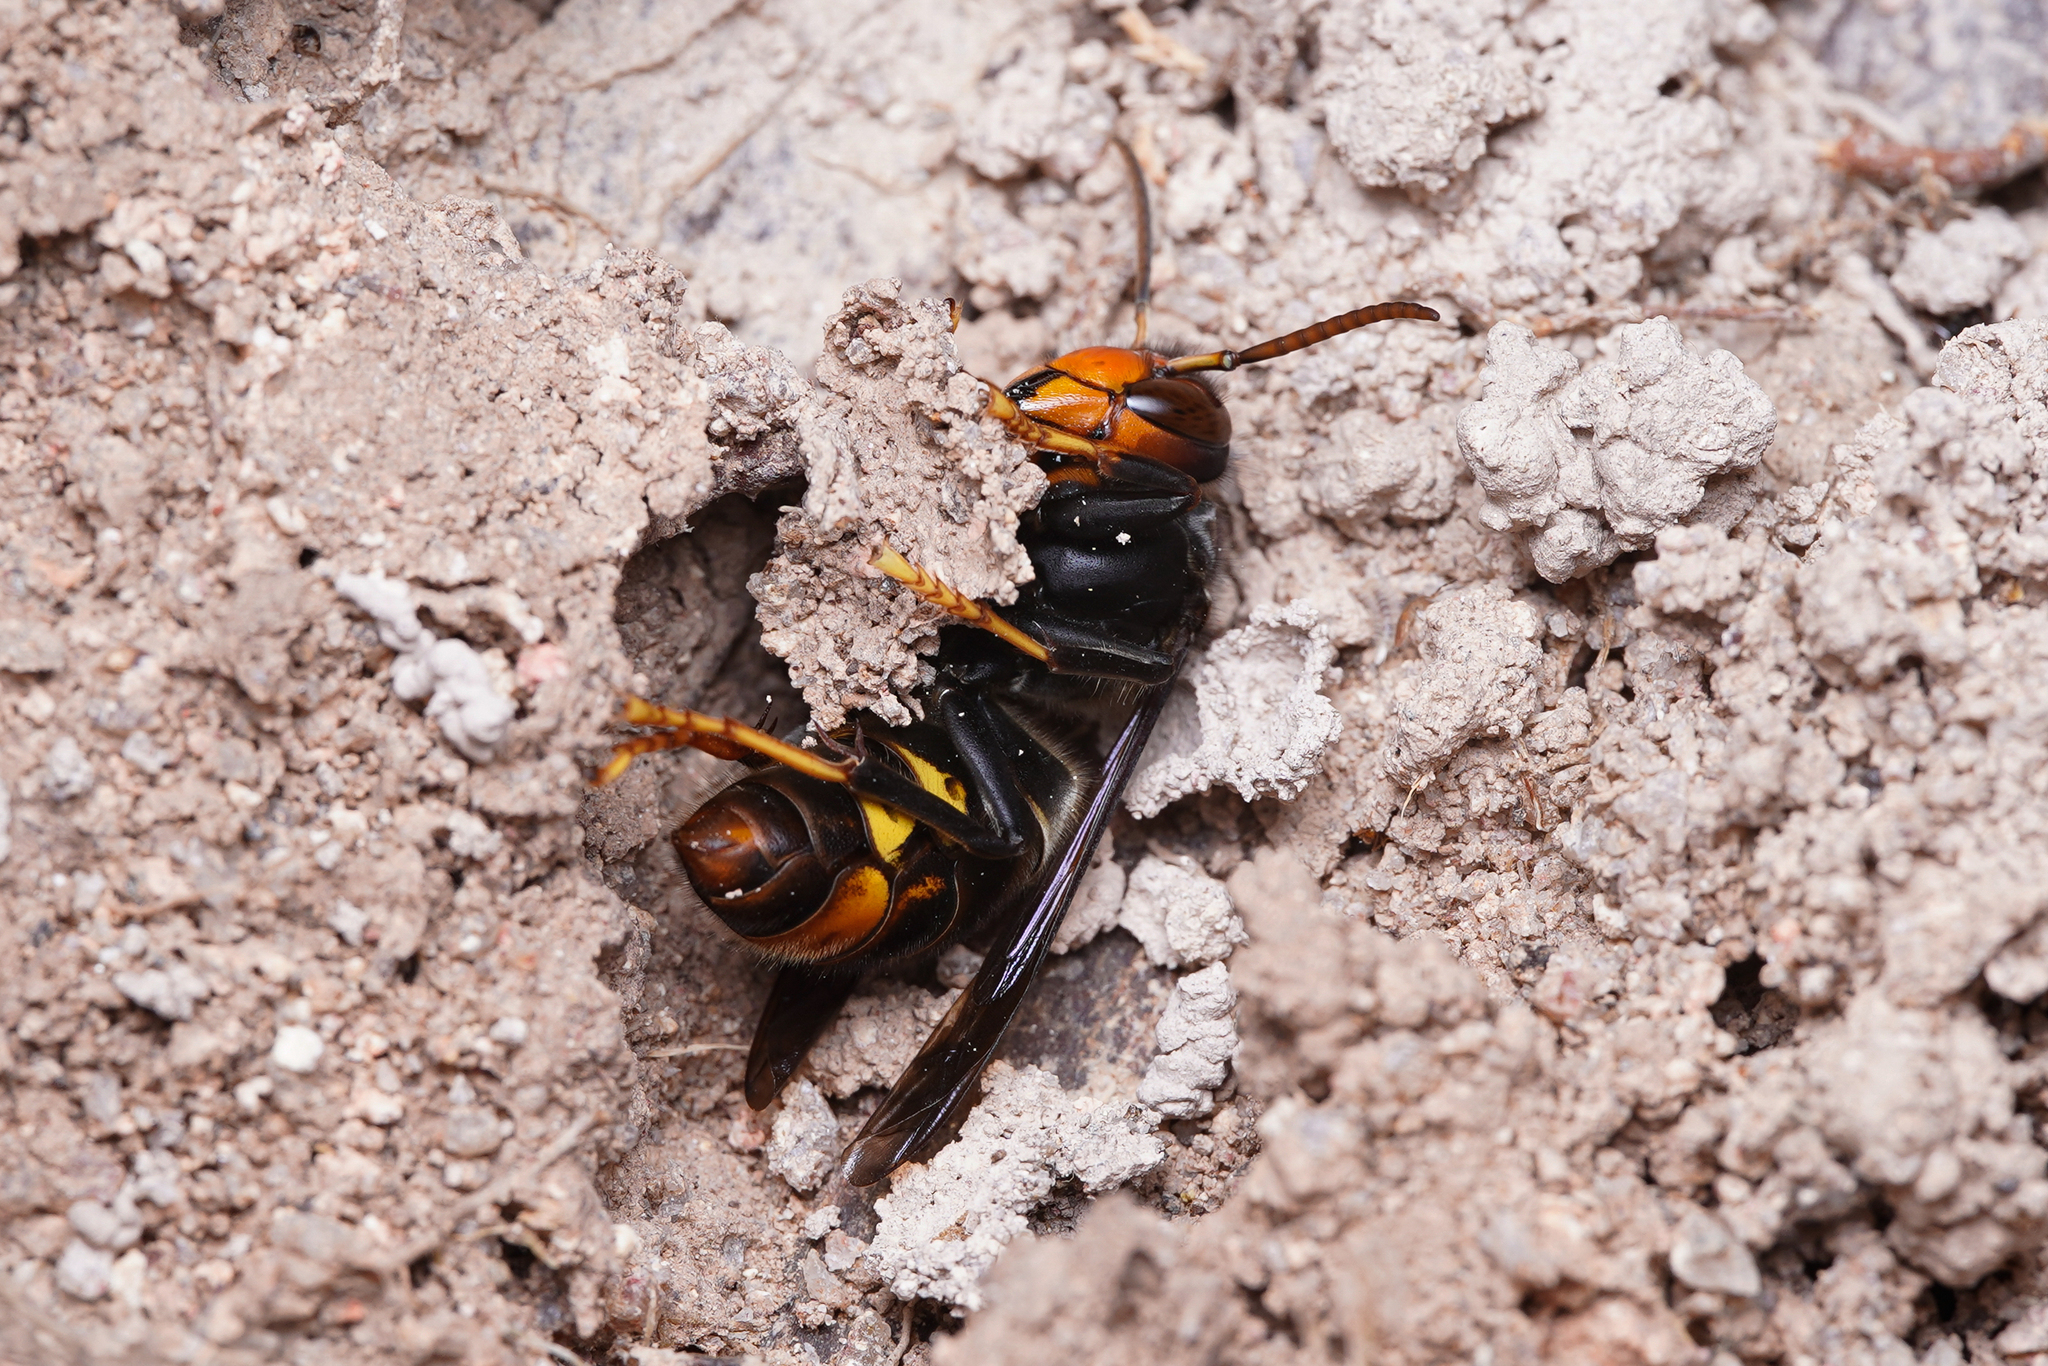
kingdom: Animalia
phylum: Arthropoda
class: Insecta
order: Hymenoptera
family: Vespidae
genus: Vespa
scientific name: Vespa velutina
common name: Asian hornet
